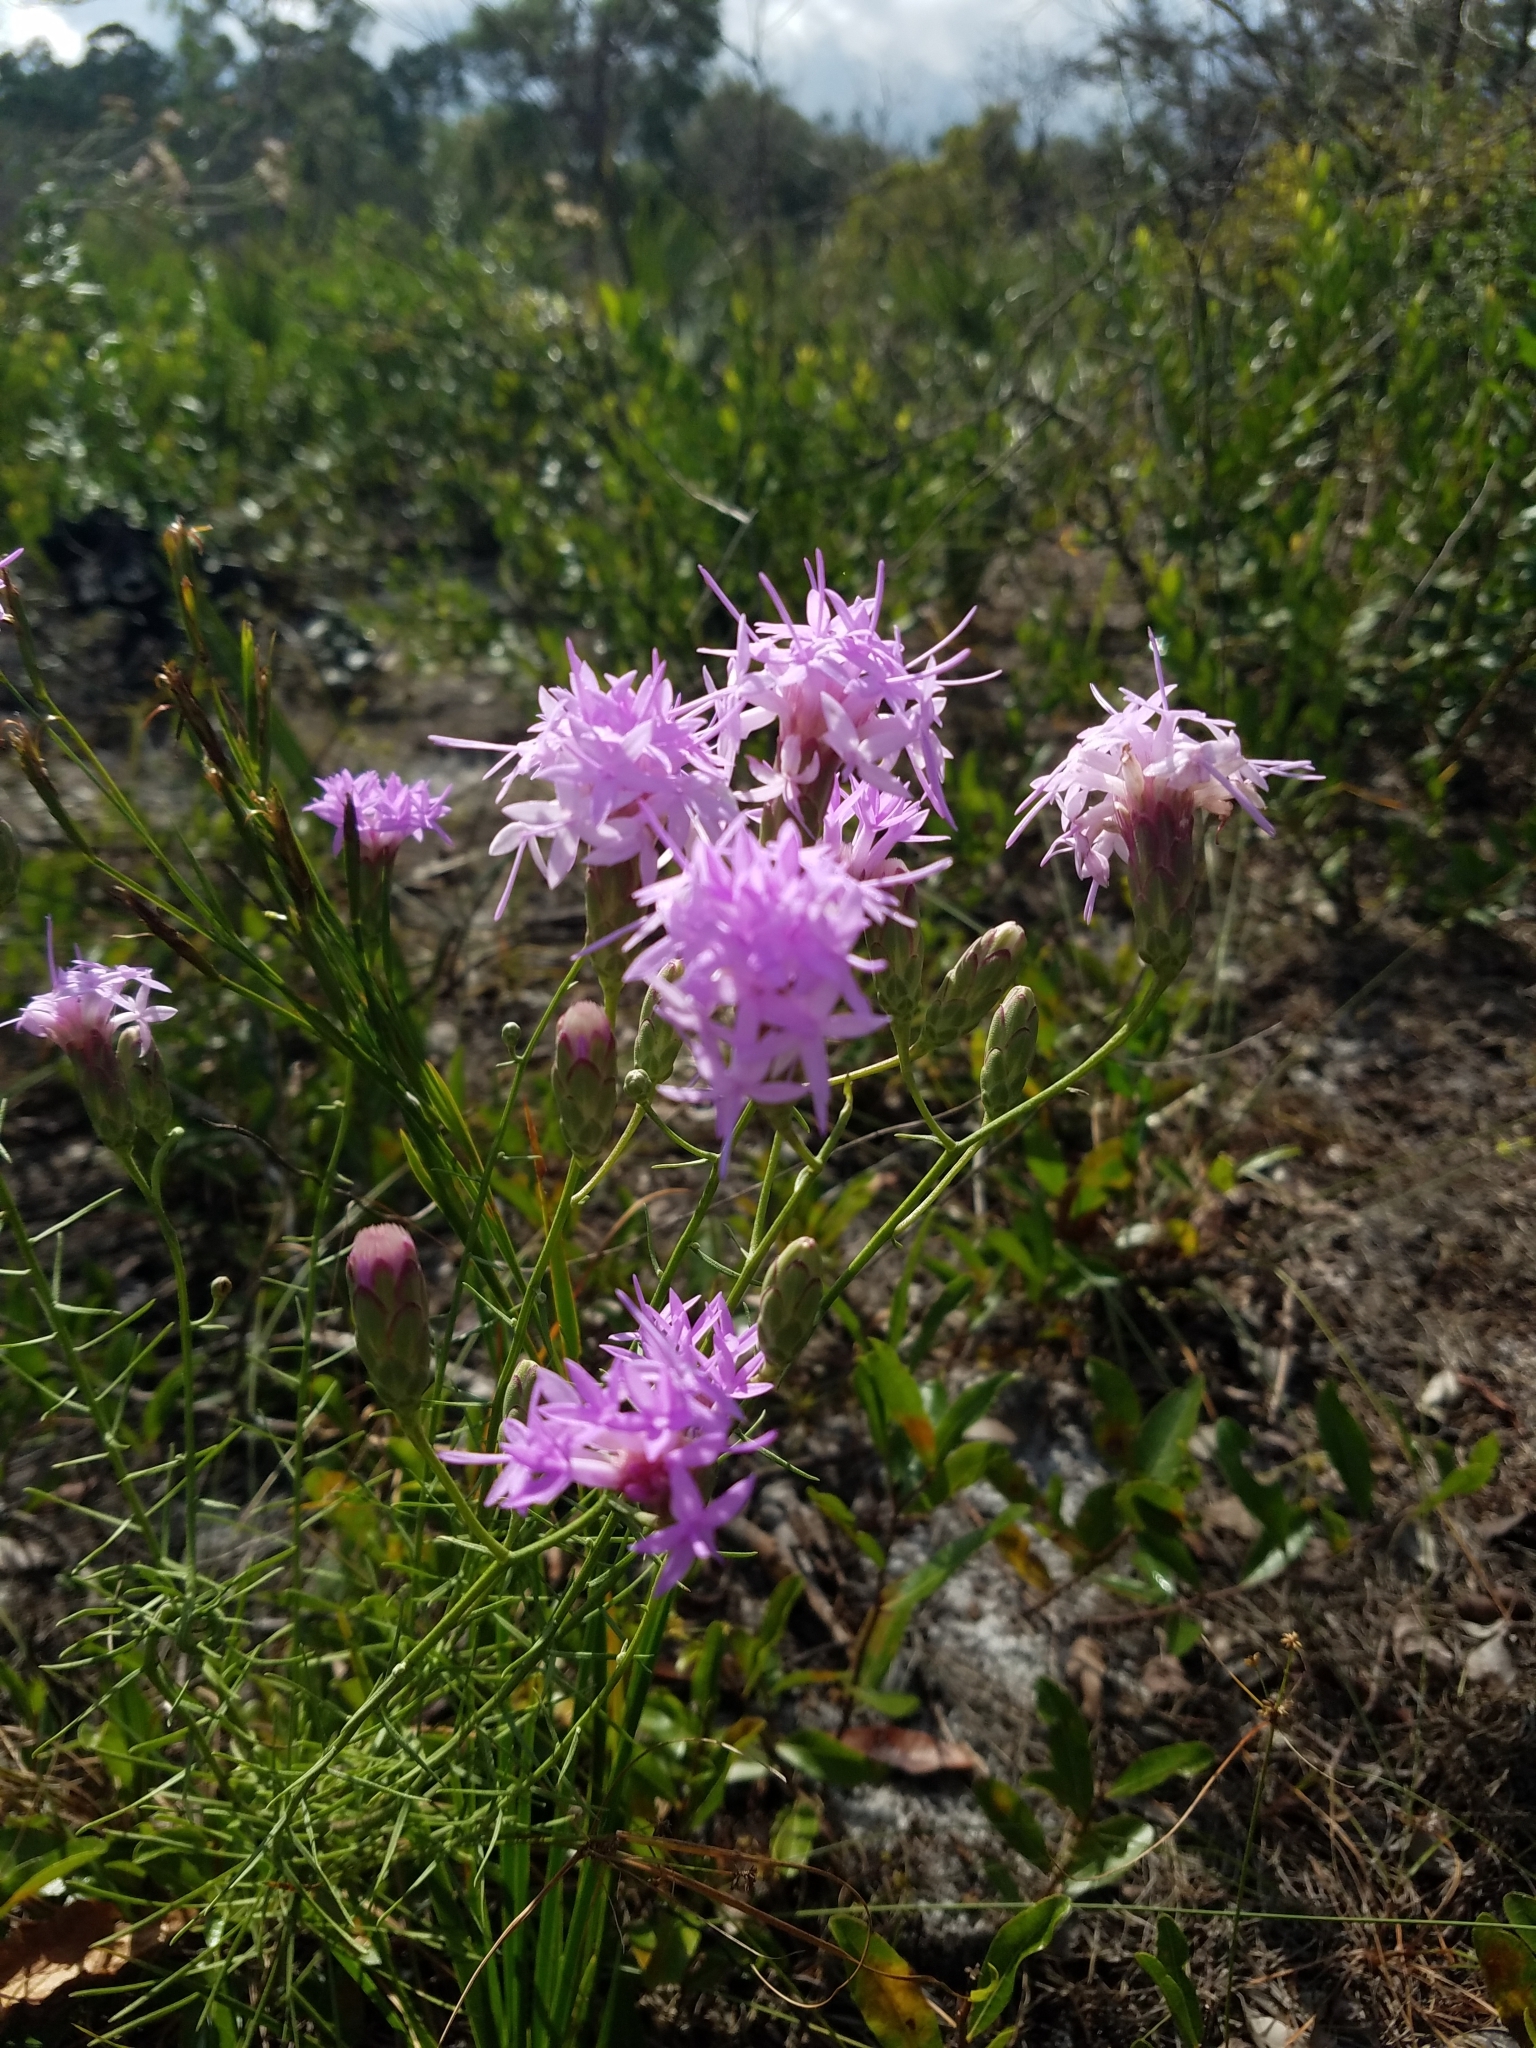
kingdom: Plantae
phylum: Tracheophyta
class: Magnoliopsida
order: Asterales
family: Asteraceae
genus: Liatris
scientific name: Liatris ohlingerae
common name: Scrub blazingstar
